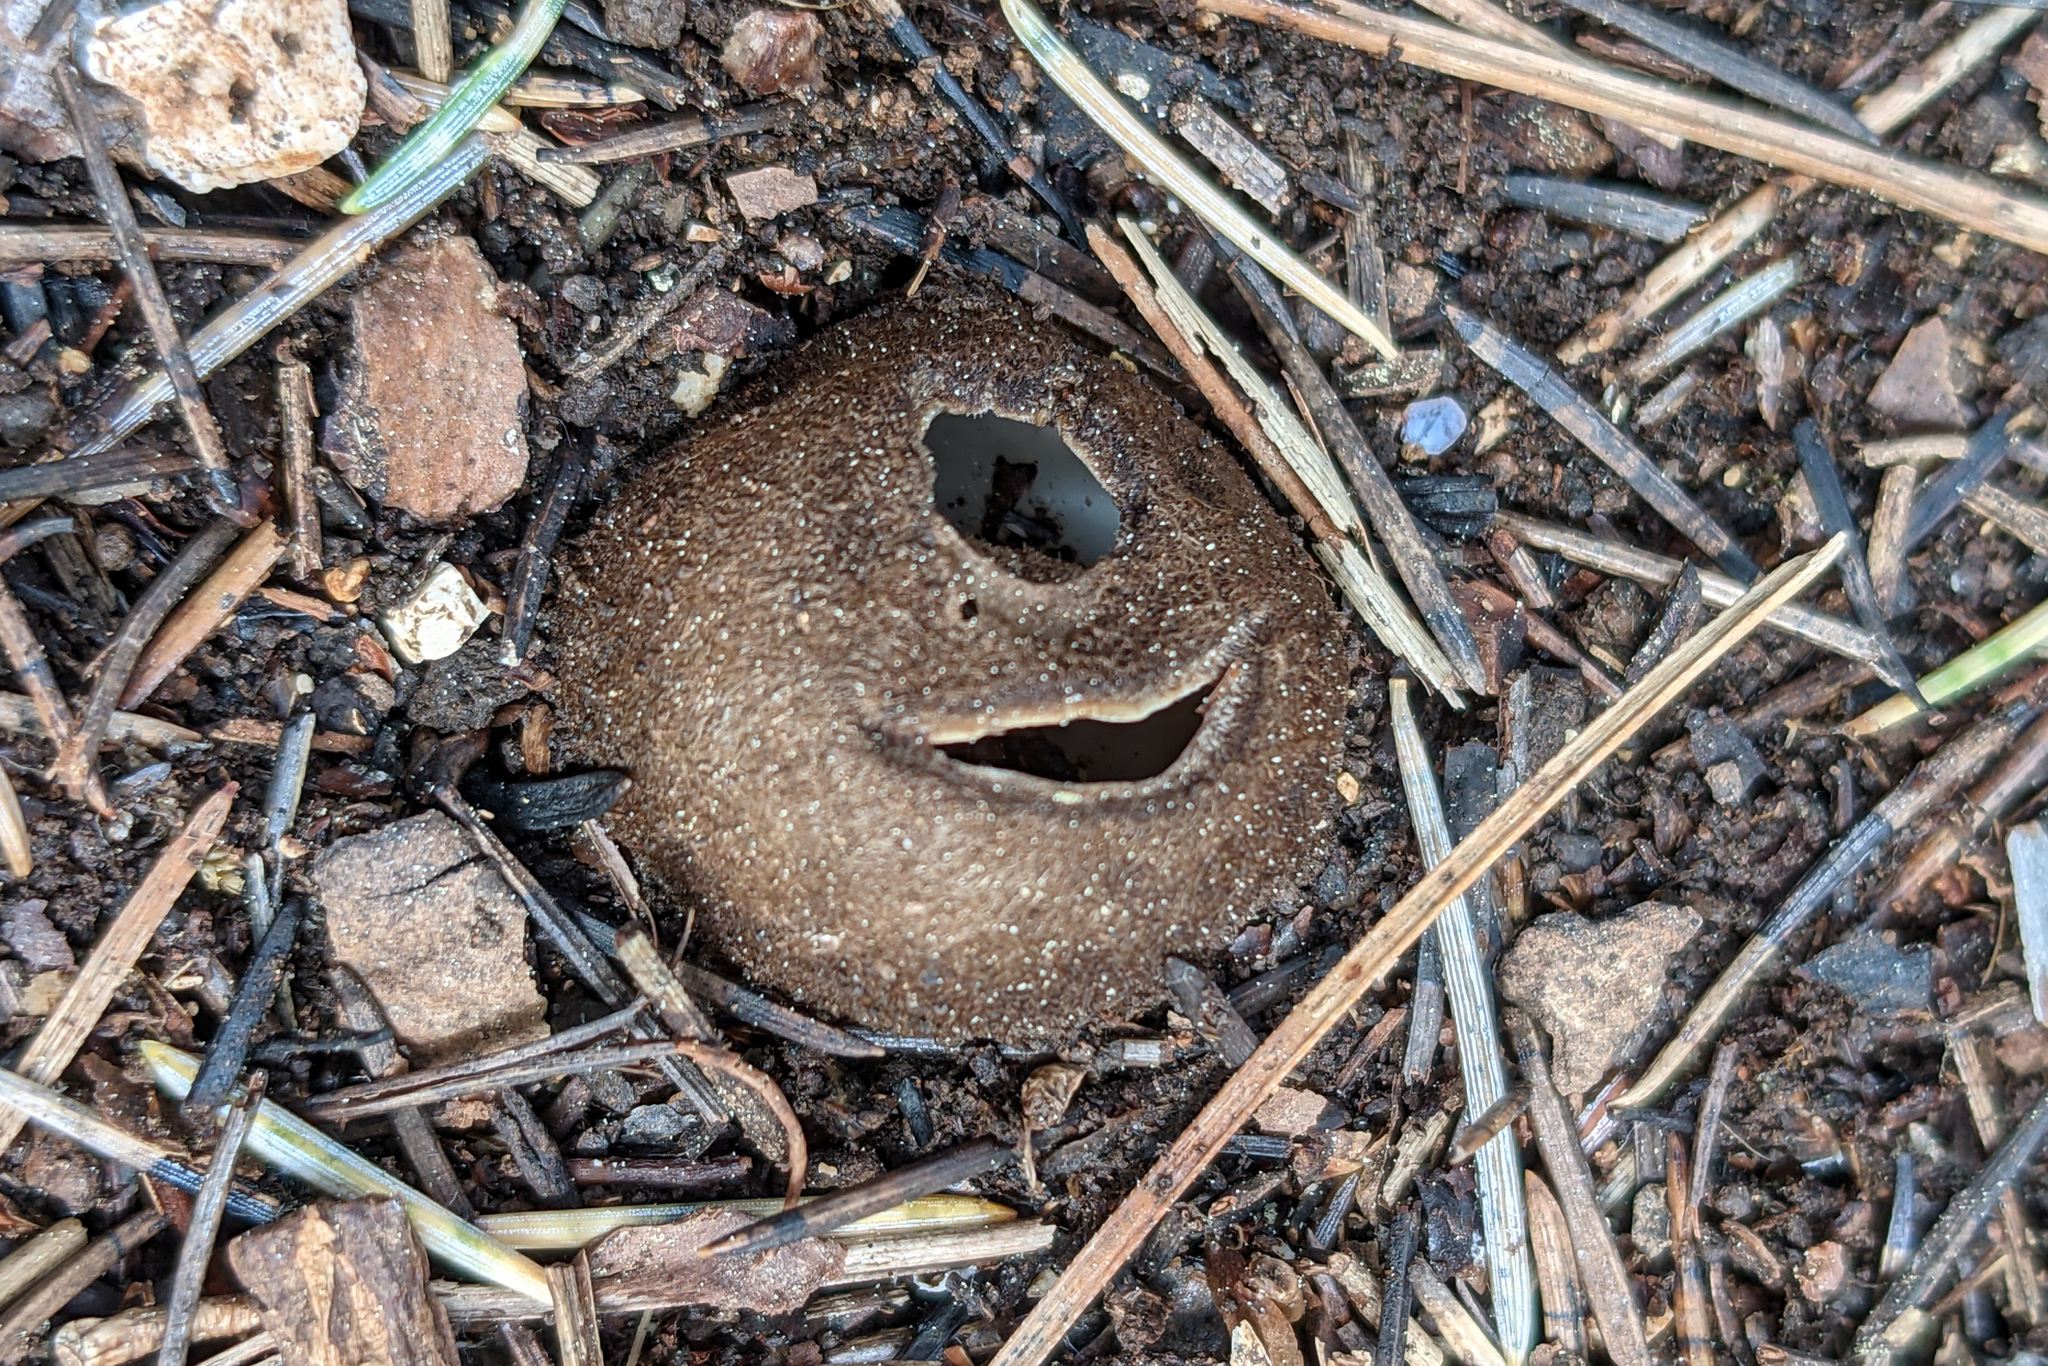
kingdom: Fungi
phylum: Ascomycota
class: Pezizomycetes
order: Pezizales
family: Pyronemataceae
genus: Geopora
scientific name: Geopora arenicola
